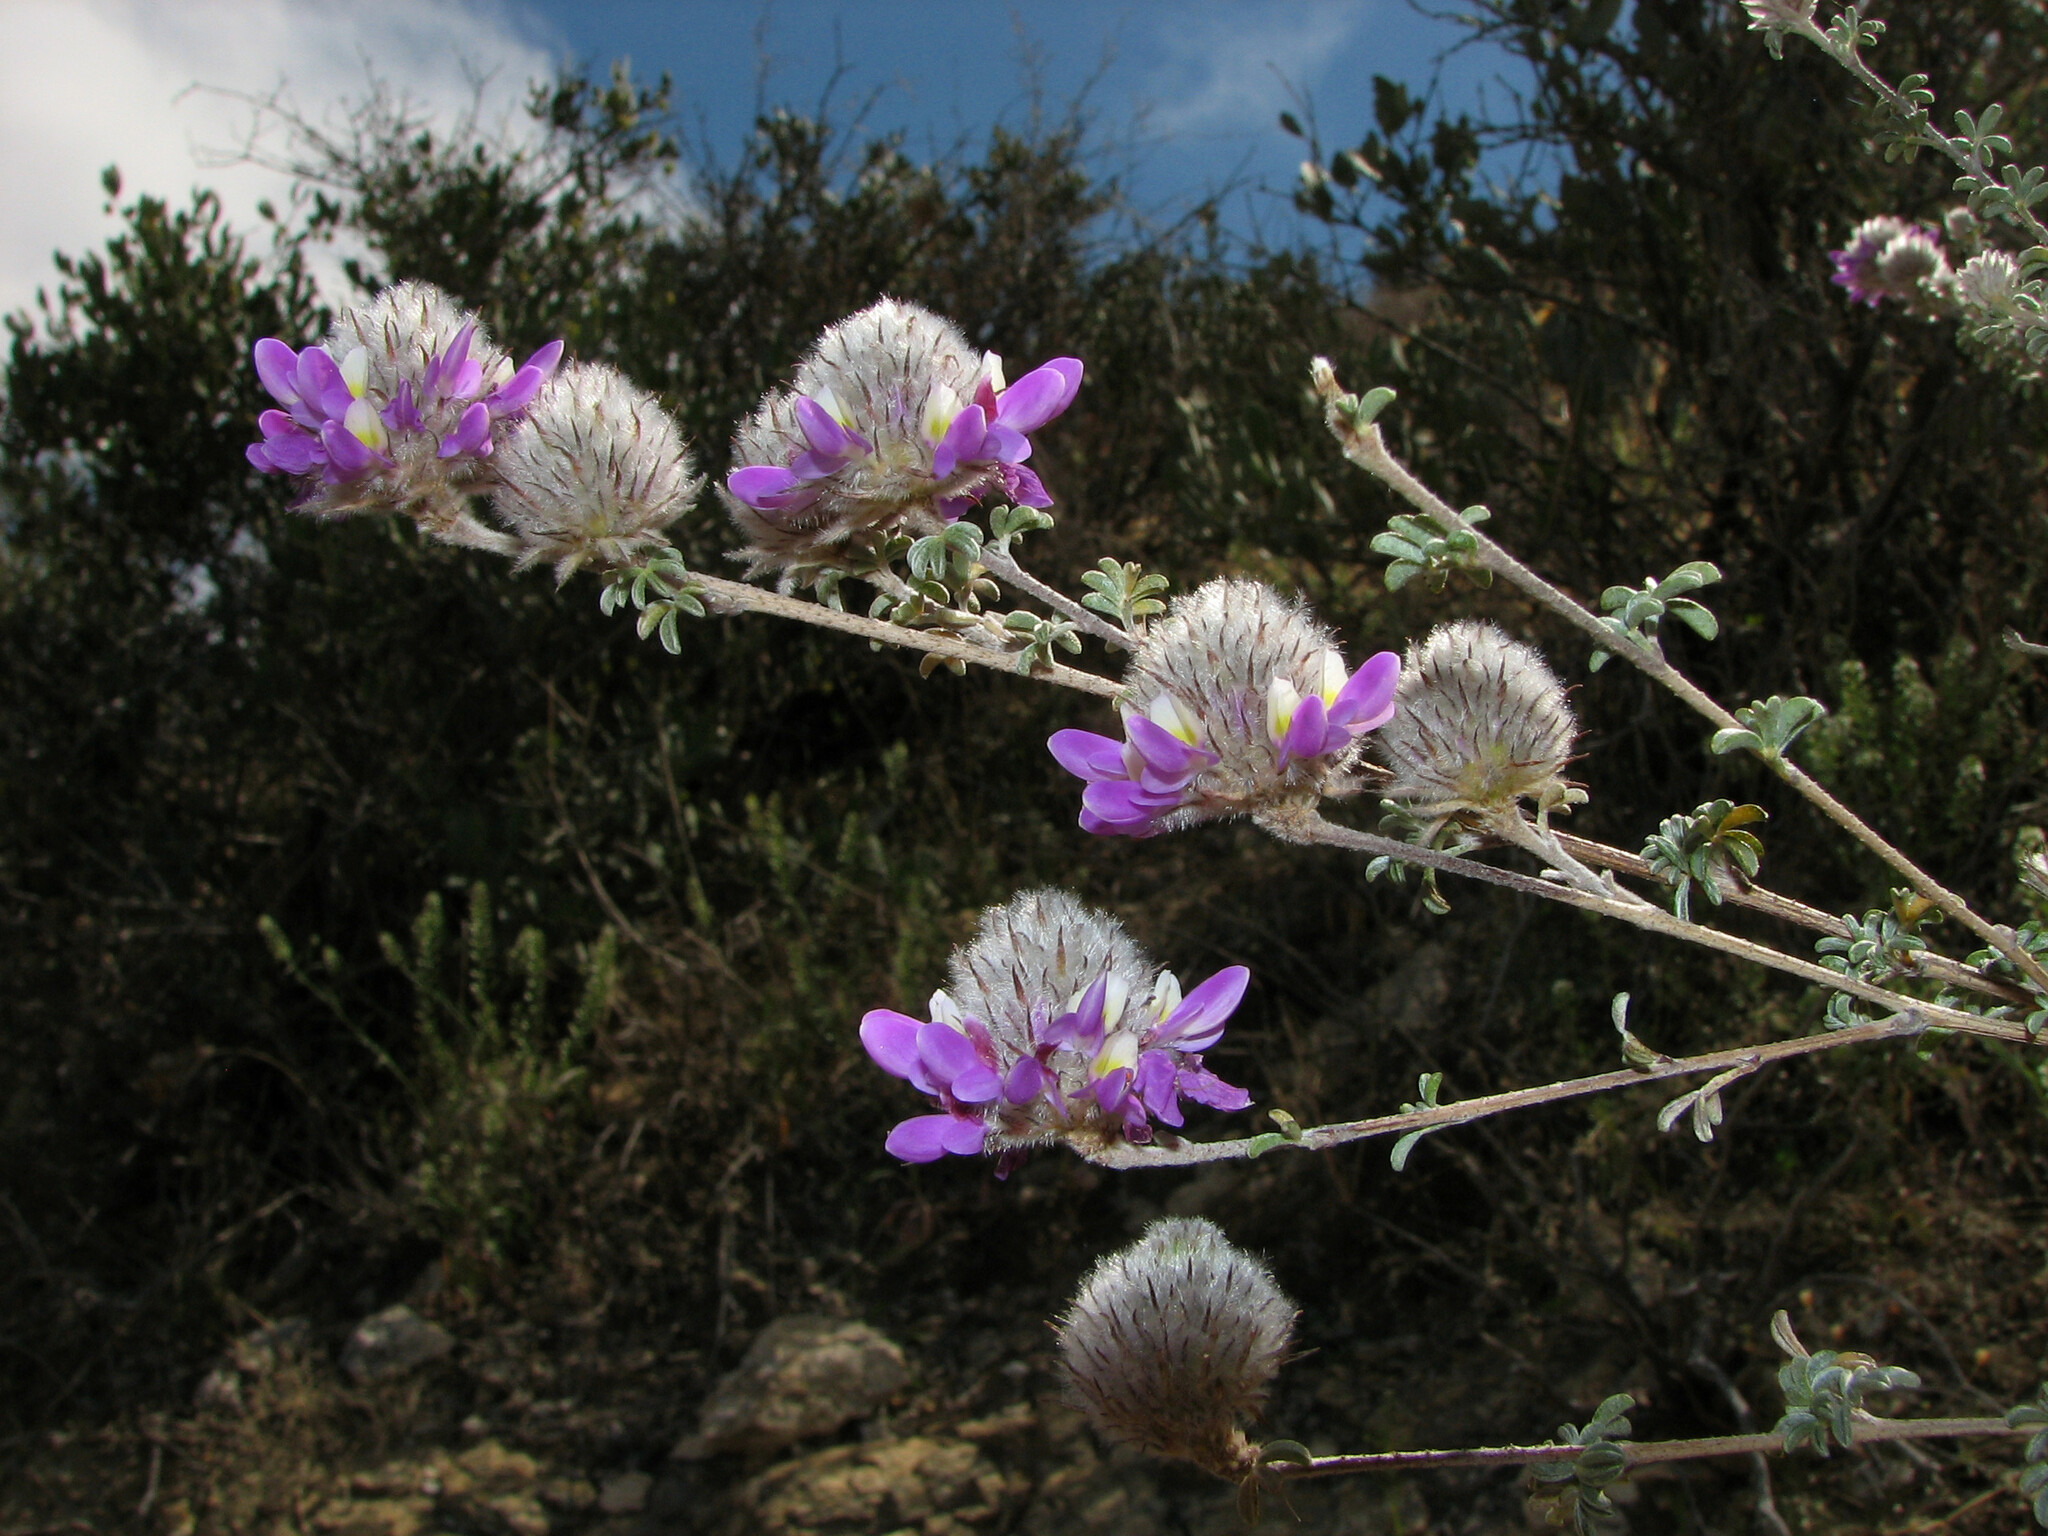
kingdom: Plantae
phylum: Tracheophyta
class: Magnoliopsida
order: Fabales
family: Fabaceae
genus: Dalea
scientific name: Dalea pulchra
